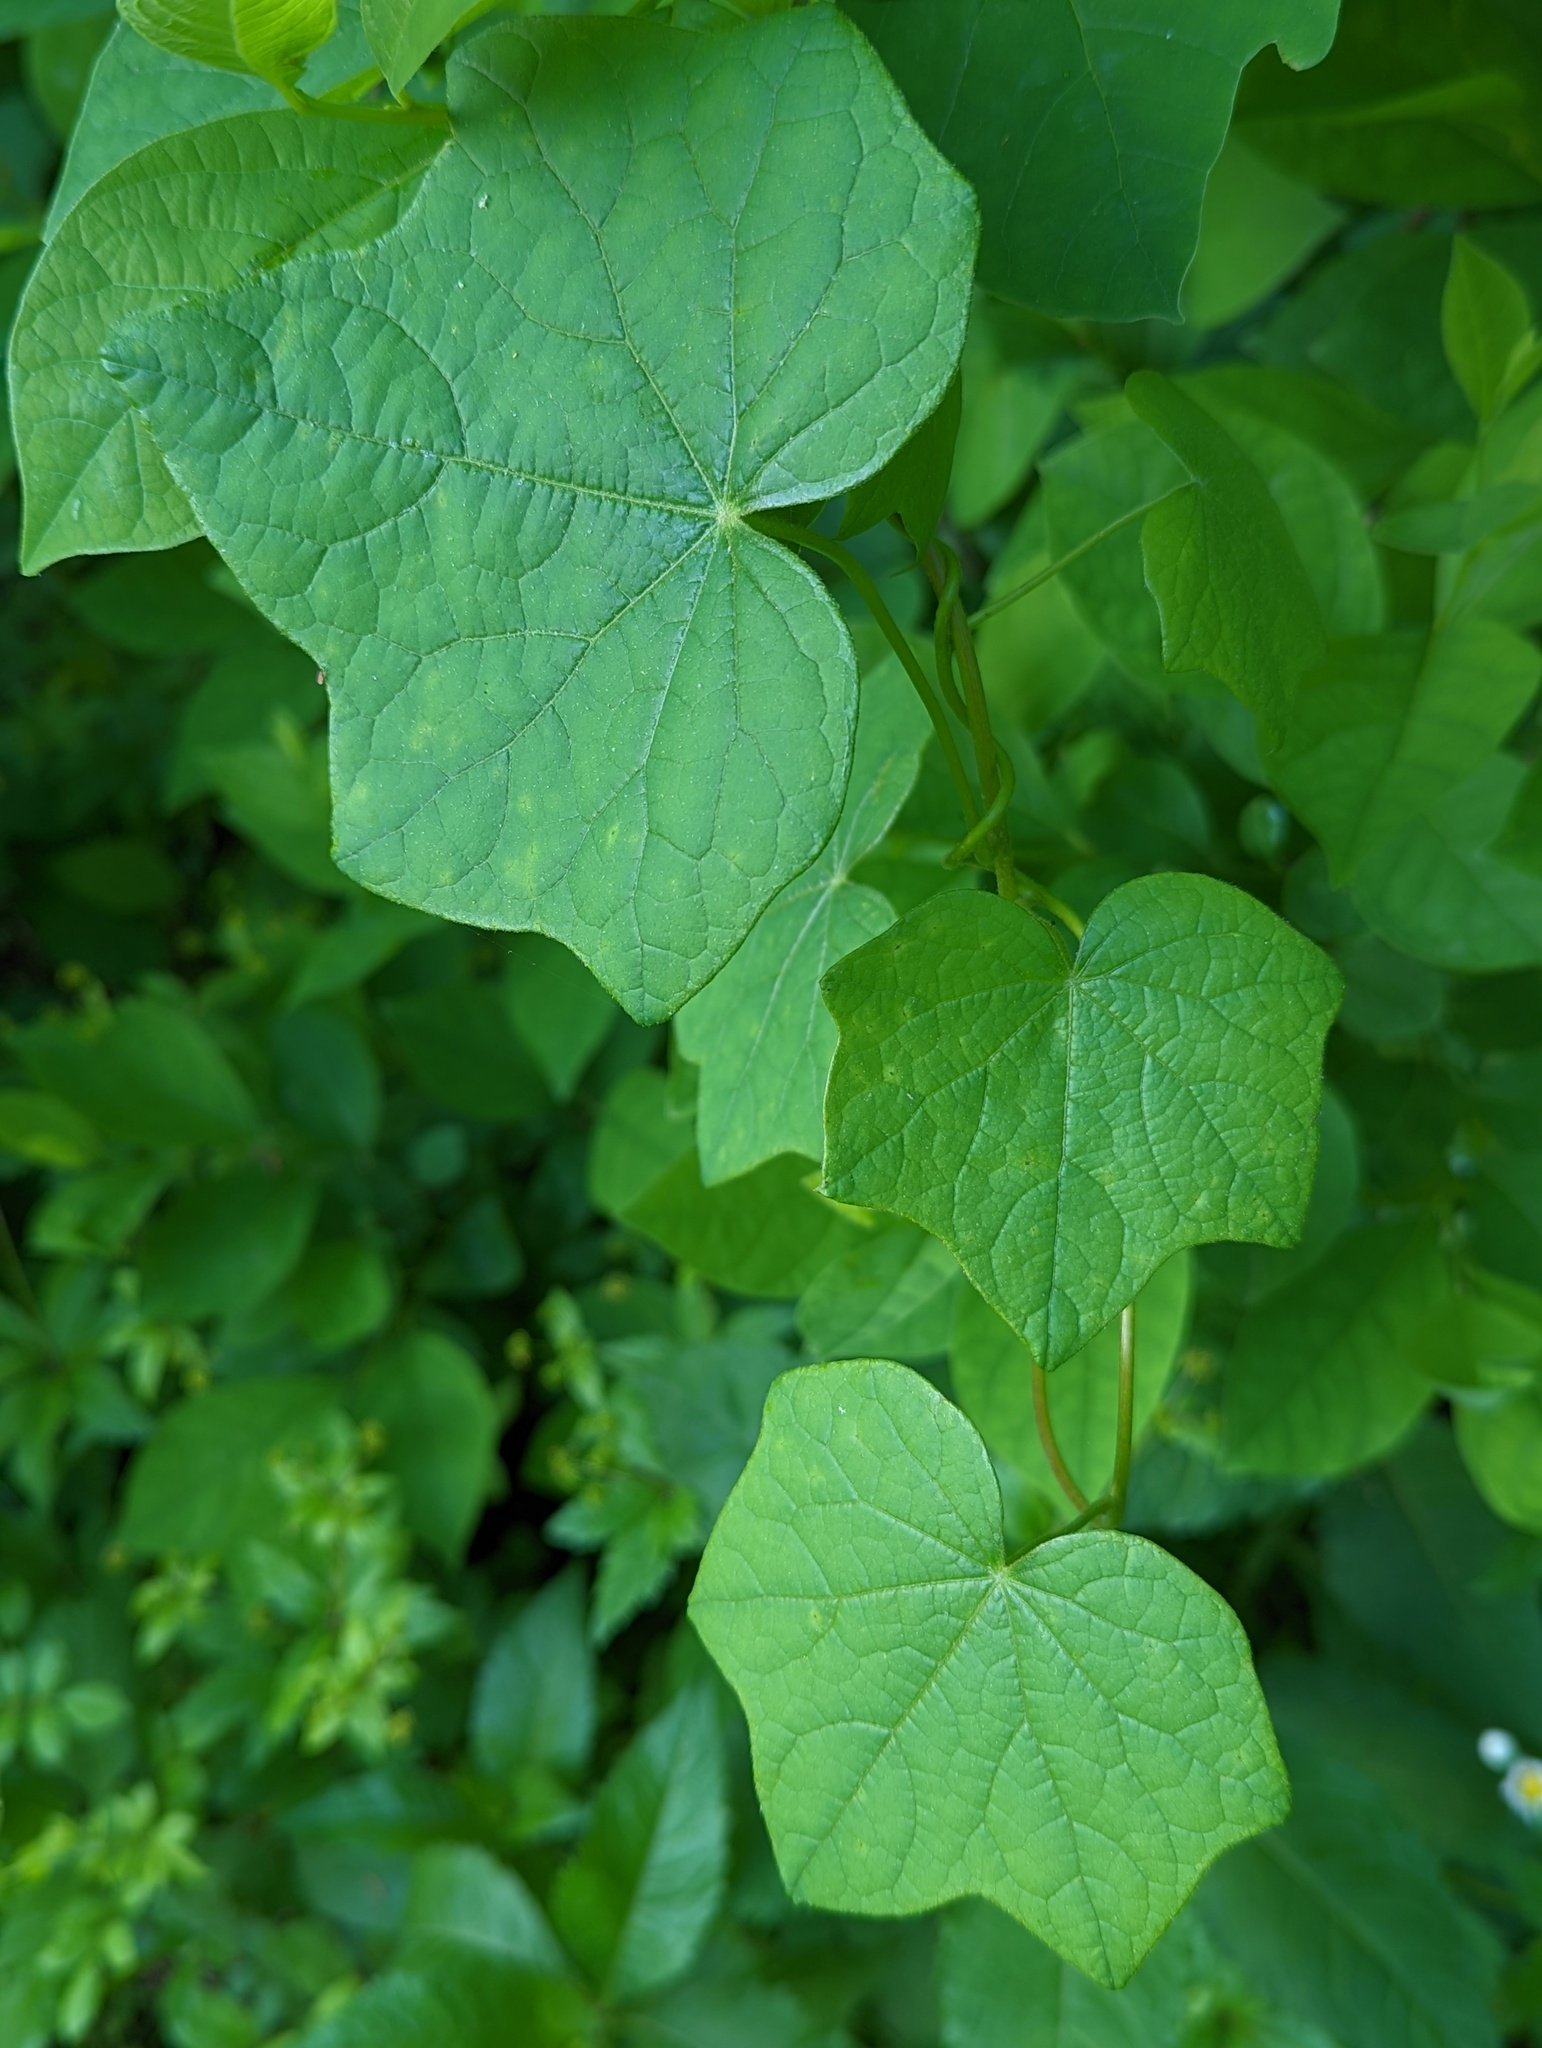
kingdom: Plantae
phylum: Tracheophyta
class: Magnoliopsida
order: Ranunculales
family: Menispermaceae
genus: Menispermum
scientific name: Menispermum canadense
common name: Moonseed
